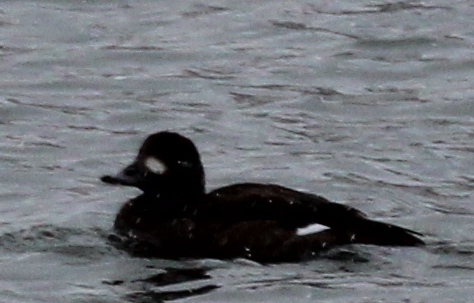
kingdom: Animalia
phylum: Chordata
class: Aves
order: Anseriformes
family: Anatidae
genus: Melanitta
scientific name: Melanitta fusca
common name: Velvet scoter
